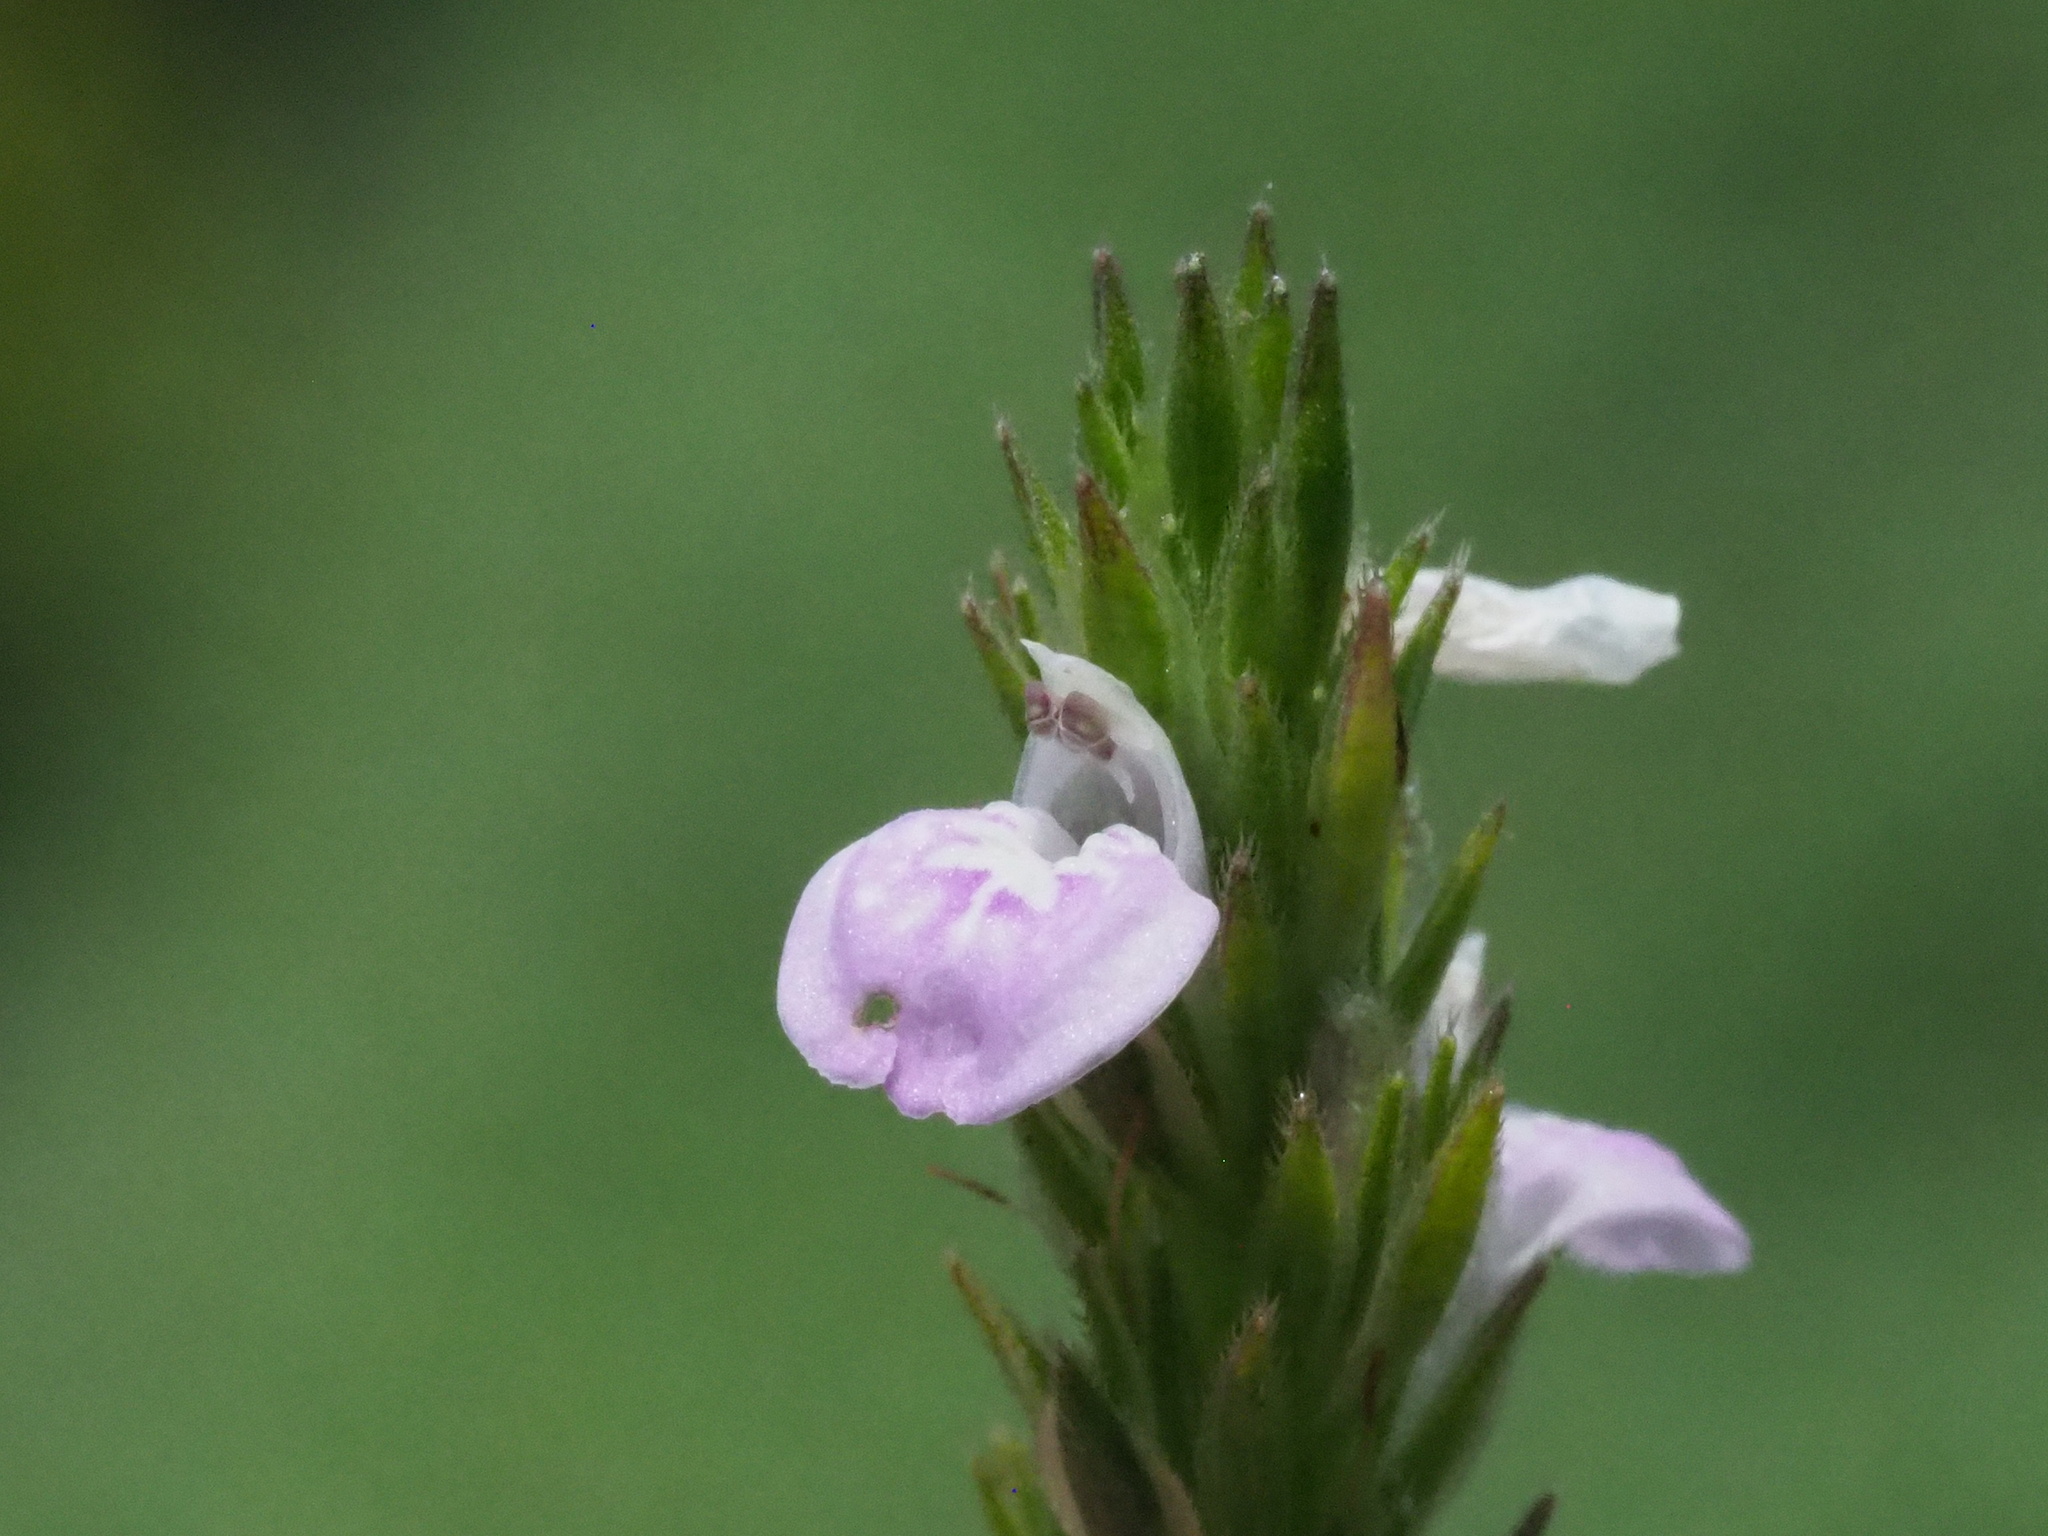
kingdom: Plantae
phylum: Tracheophyta
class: Magnoliopsida
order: Lamiales
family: Acanthaceae
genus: Rostellularia
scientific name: Rostellularia hayatae
